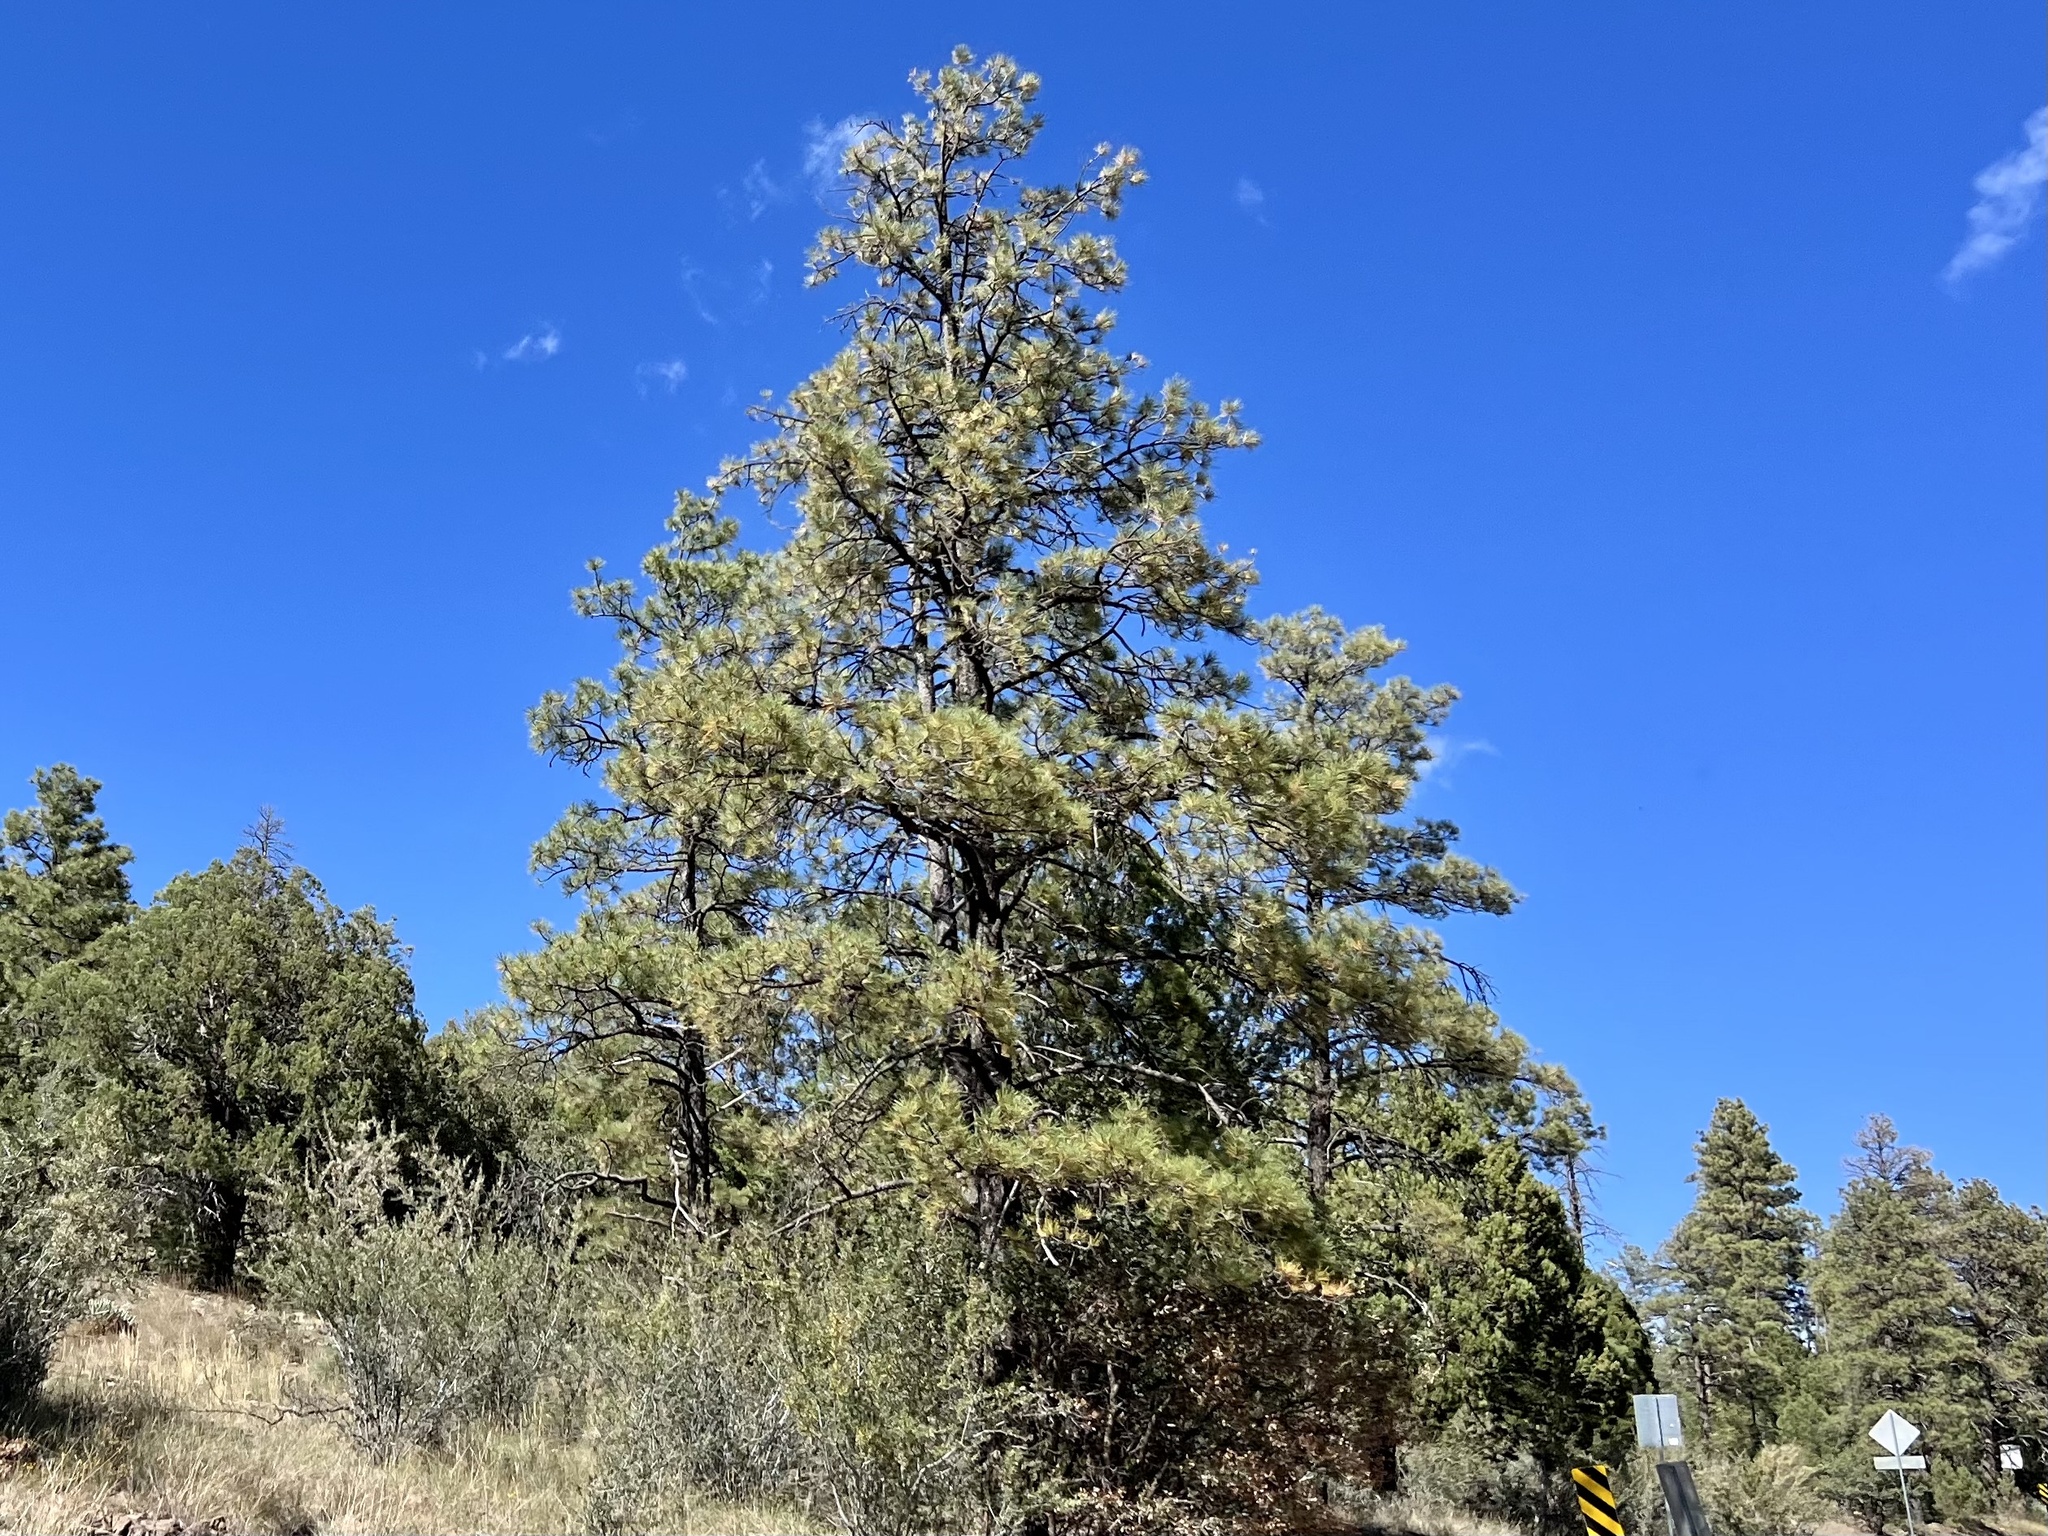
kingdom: Plantae
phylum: Tracheophyta
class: Pinopsida
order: Pinales
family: Pinaceae
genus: Pinus
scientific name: Pinus ponderosa
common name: Western yellow-pine
